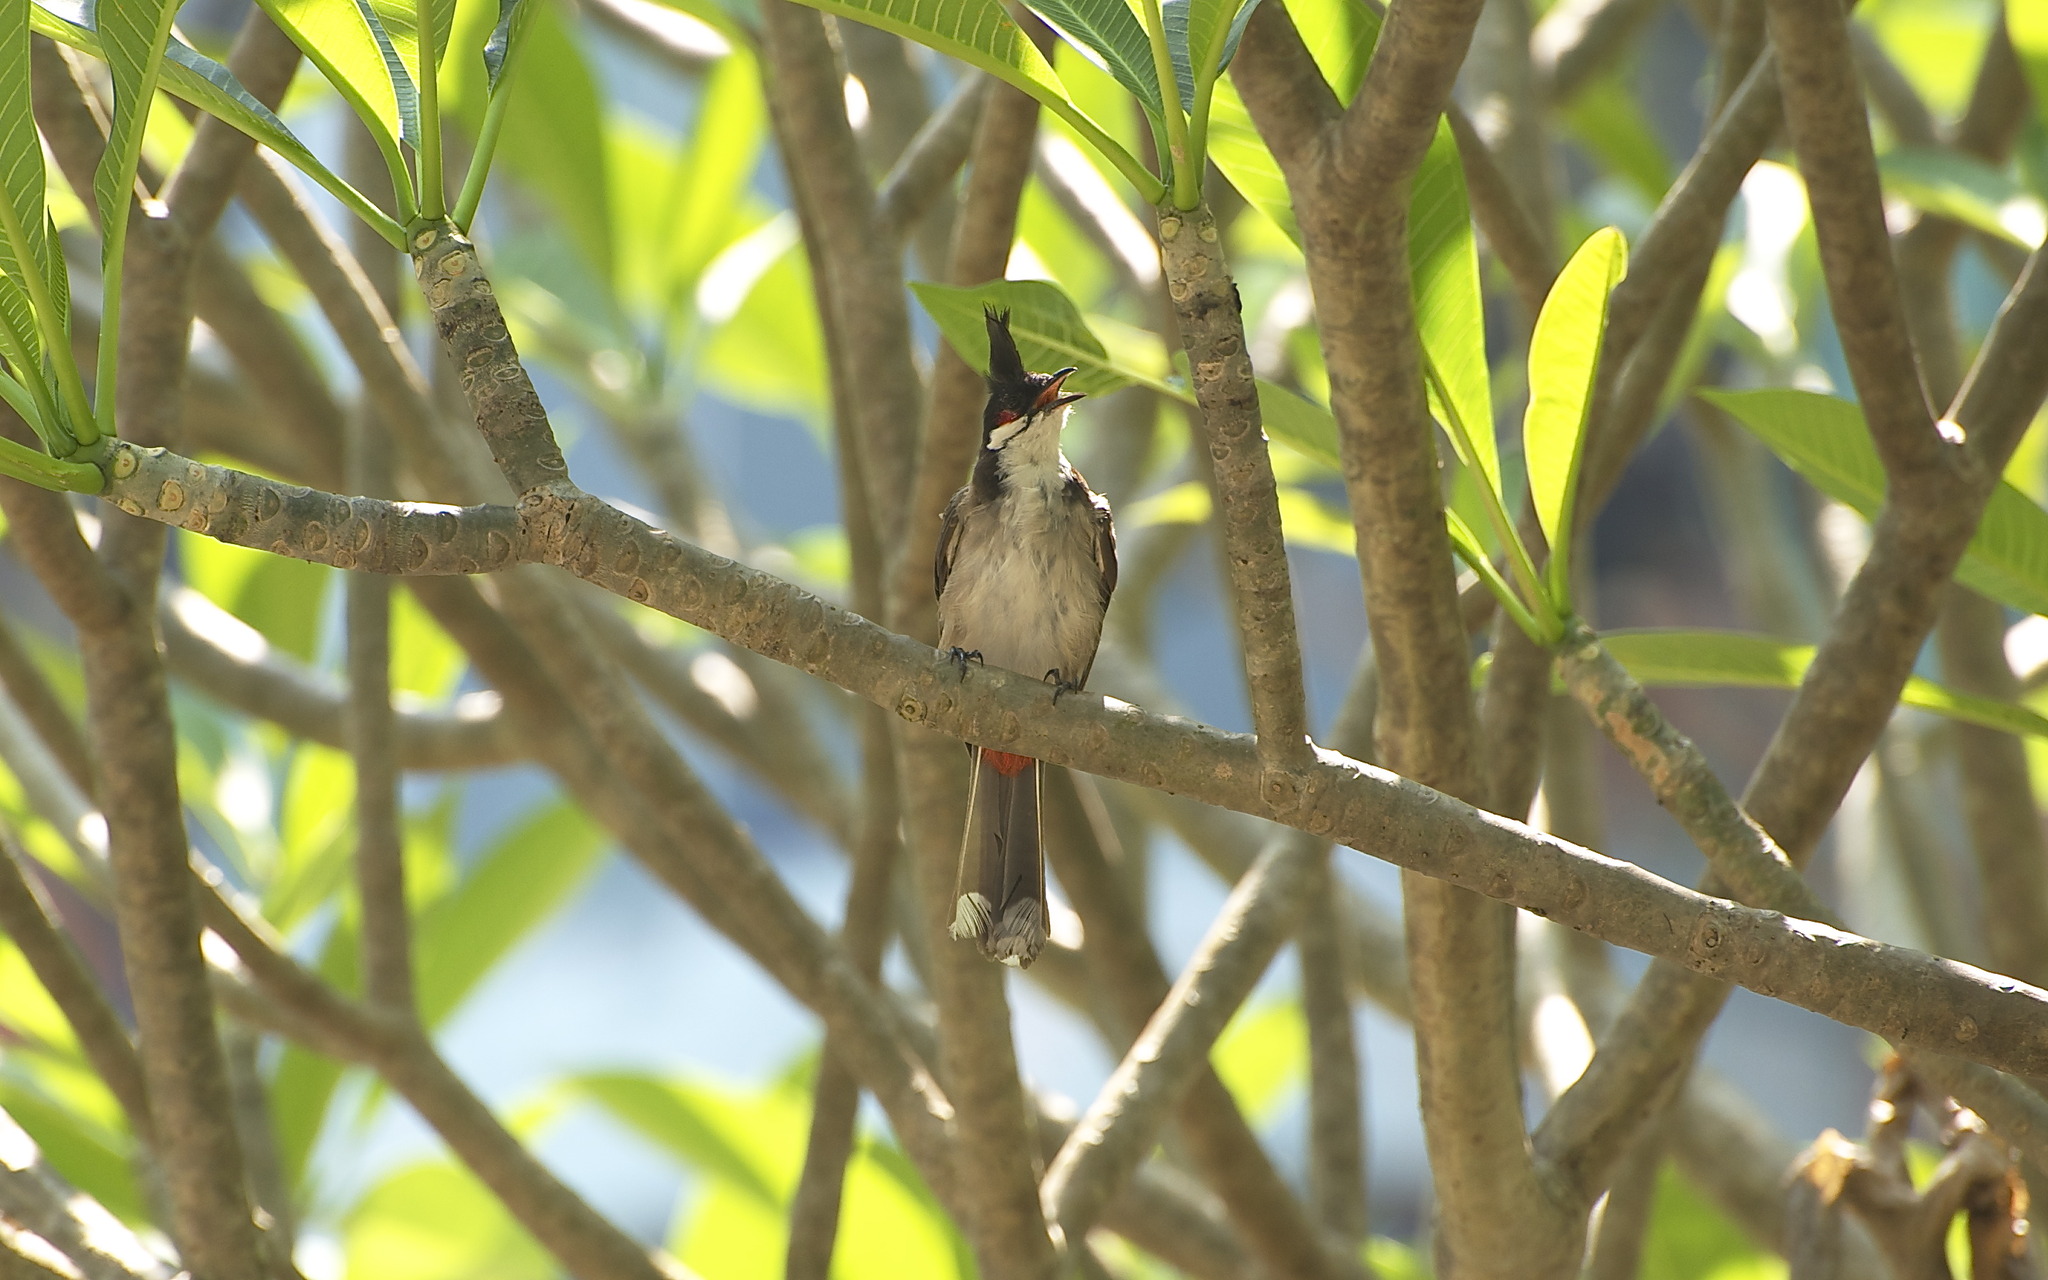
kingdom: Animalia
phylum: Chordata
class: Aves
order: Passeriformes
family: Pycnonotidae
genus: Pycnonotus
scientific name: Pycnonotus jocosus
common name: Red-whiskered bulbul
